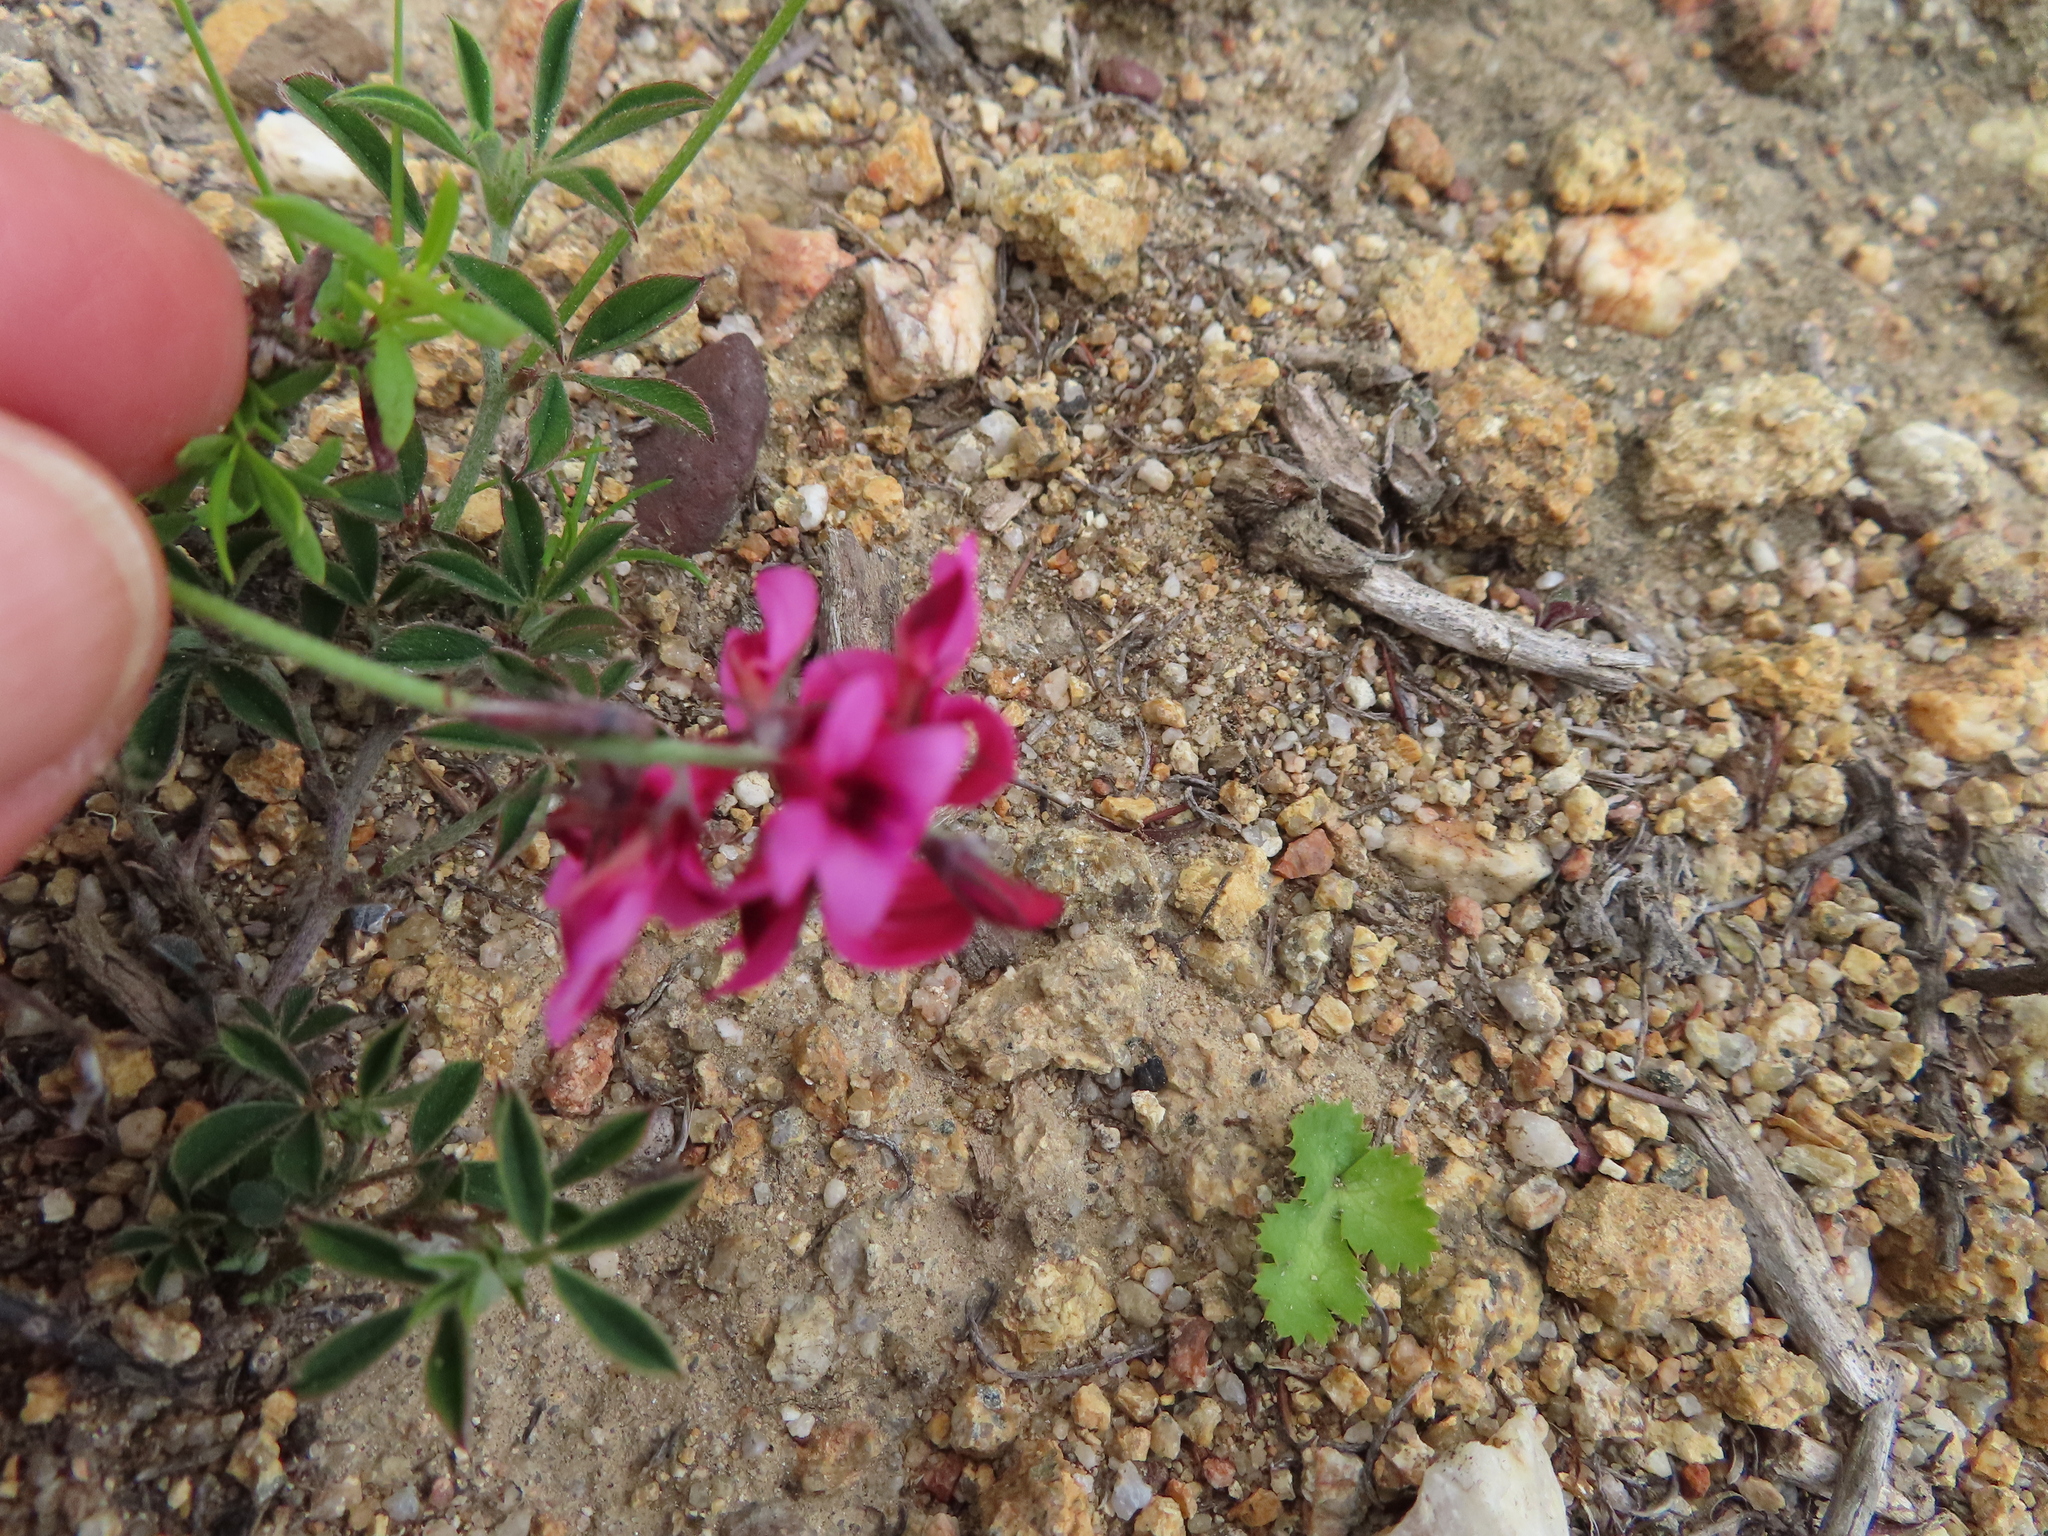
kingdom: Plantae
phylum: Tracheophyta
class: Magnoliopsida
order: Fabales
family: Fabaceae
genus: Indigofera
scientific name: Indigofera incana
